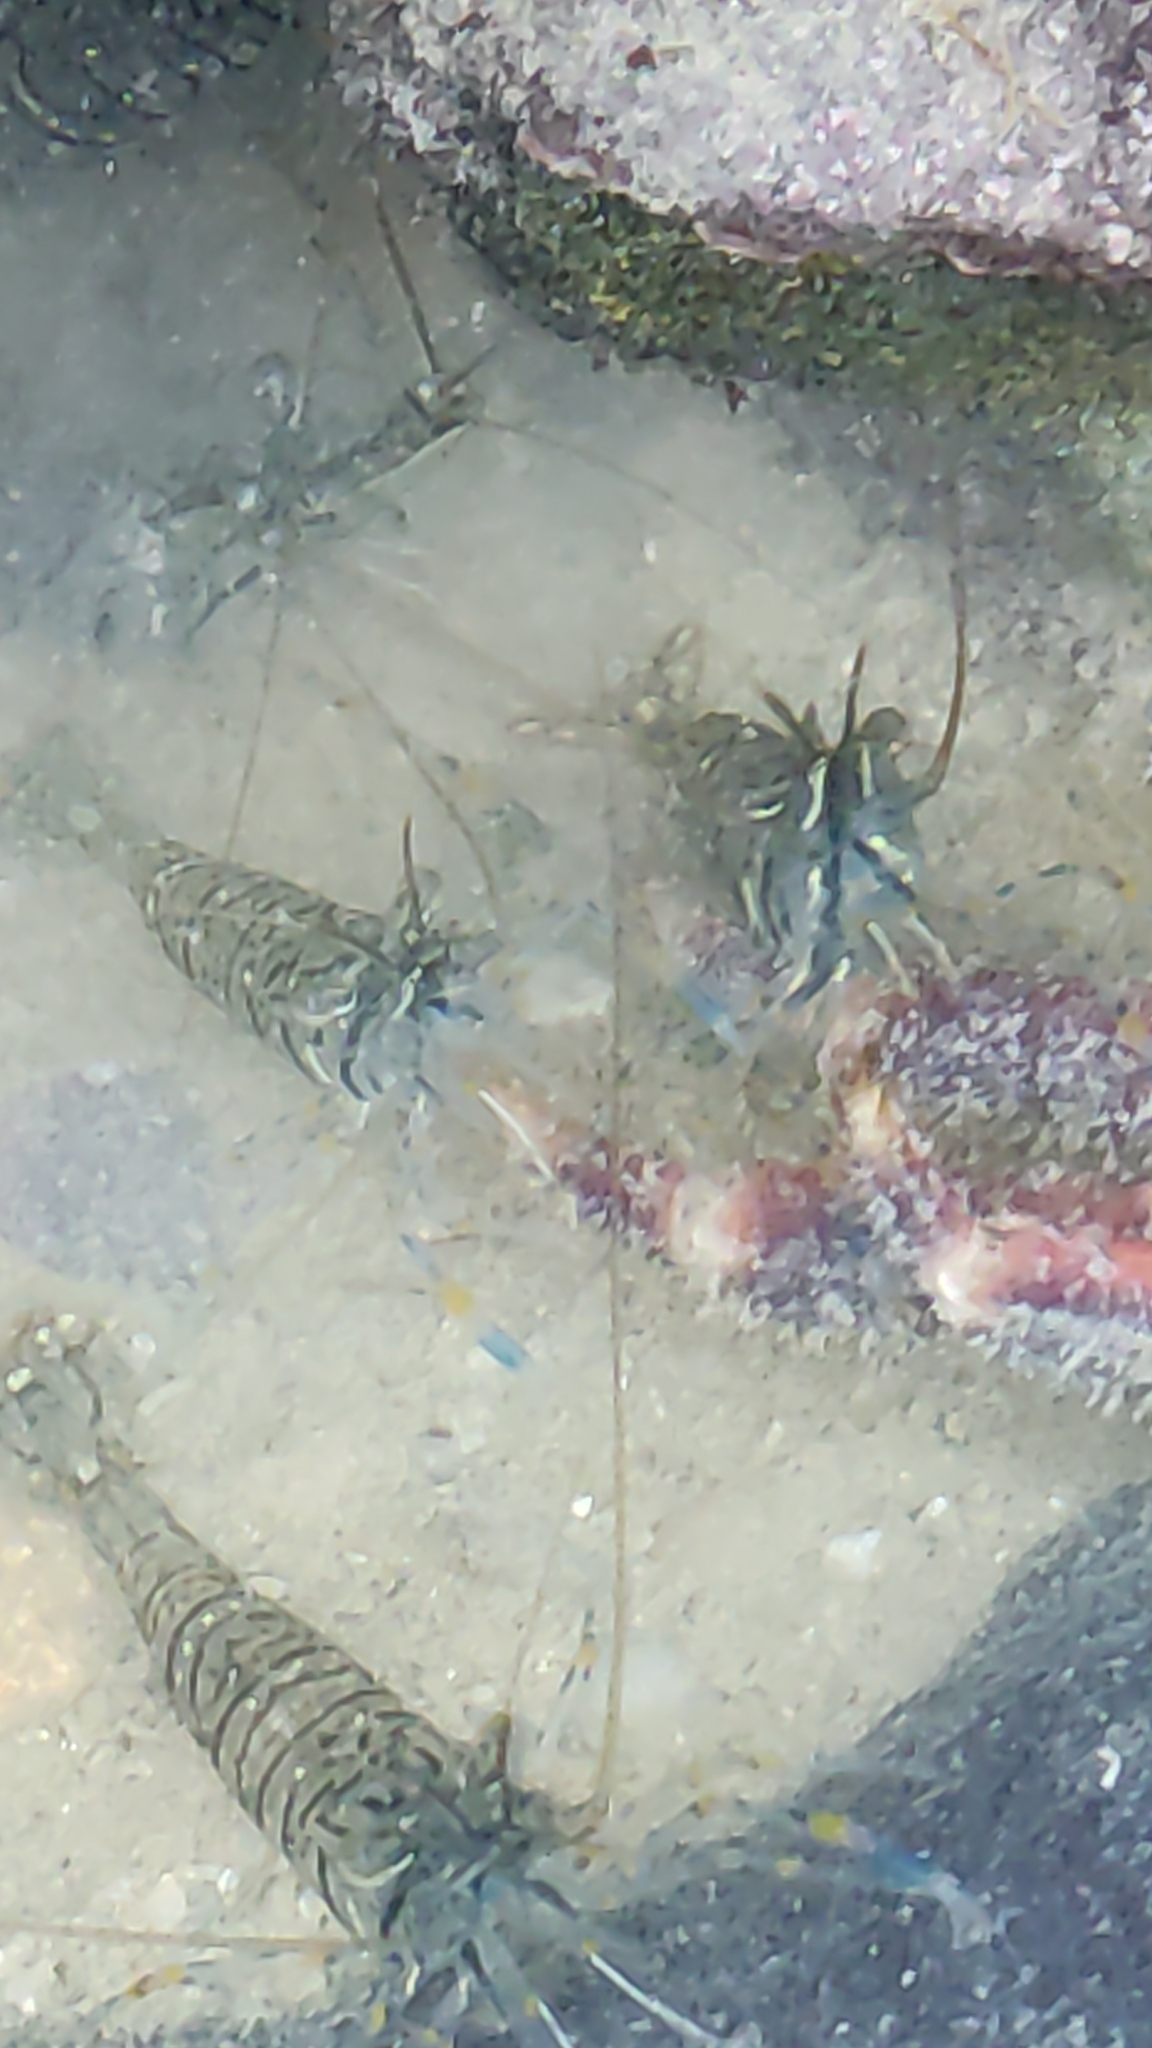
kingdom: Animalia
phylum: Arthropoda
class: Malacostraca
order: Decapoda
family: Palaemonidae
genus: Palaemon
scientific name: Palaemon elegans
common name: Grass prawm
